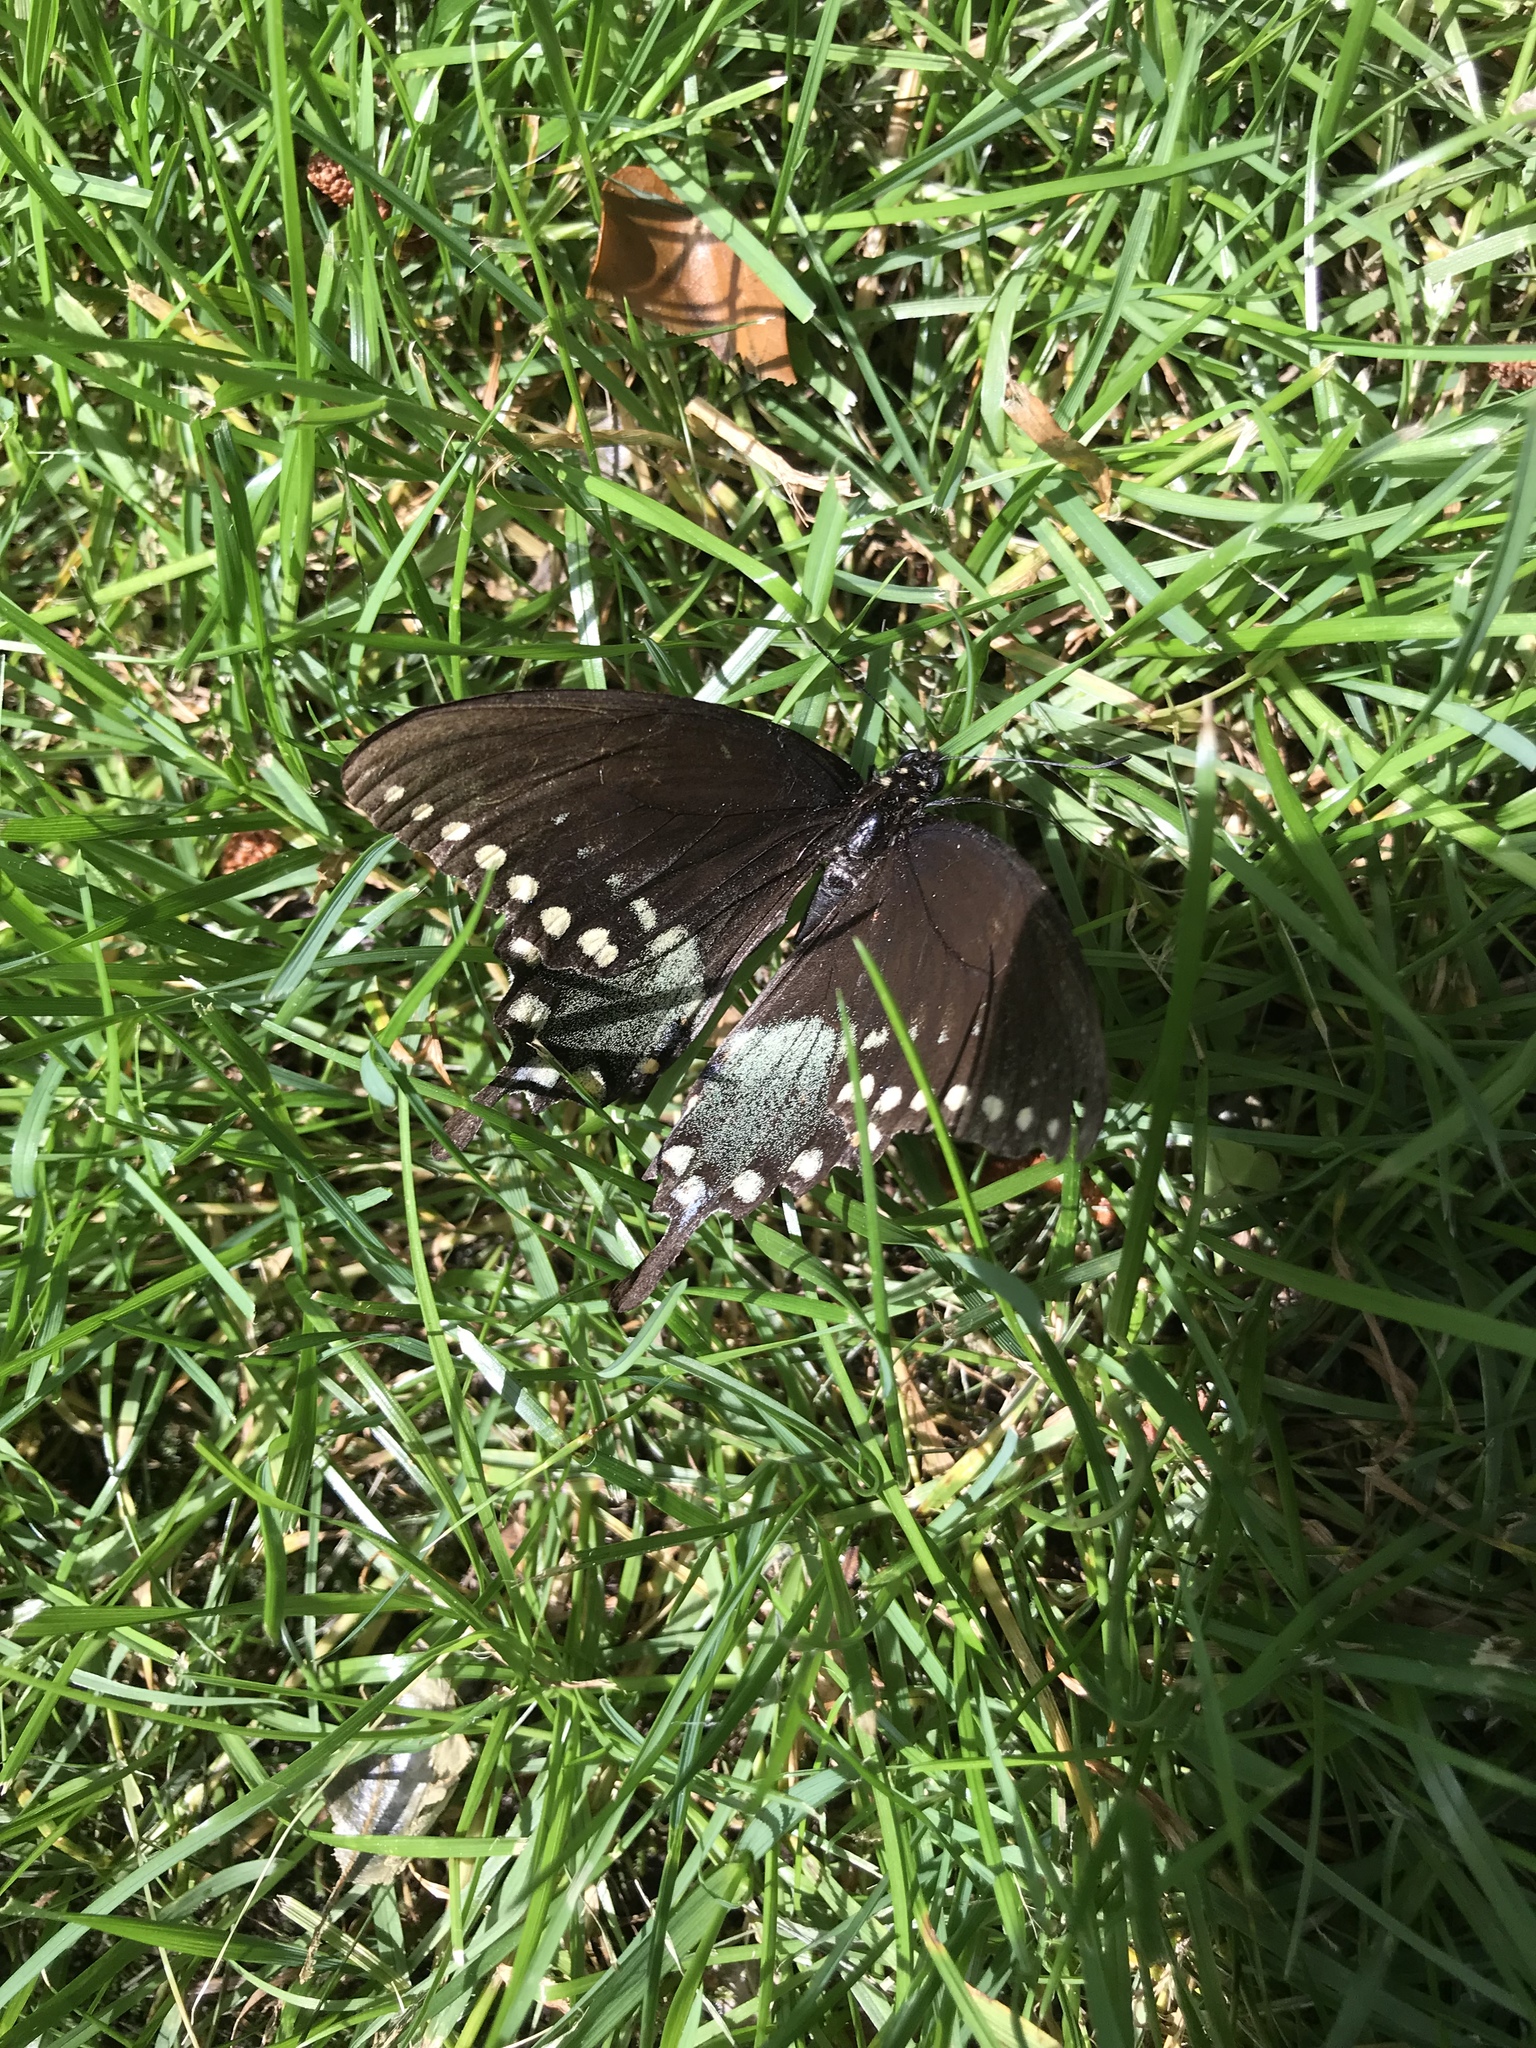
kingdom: Animalia
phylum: Arthropoda
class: Insecta
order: Lepidoptera
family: Papilionidae
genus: Papilio
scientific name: Papilio troilus
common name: Spicebush swallowtail
